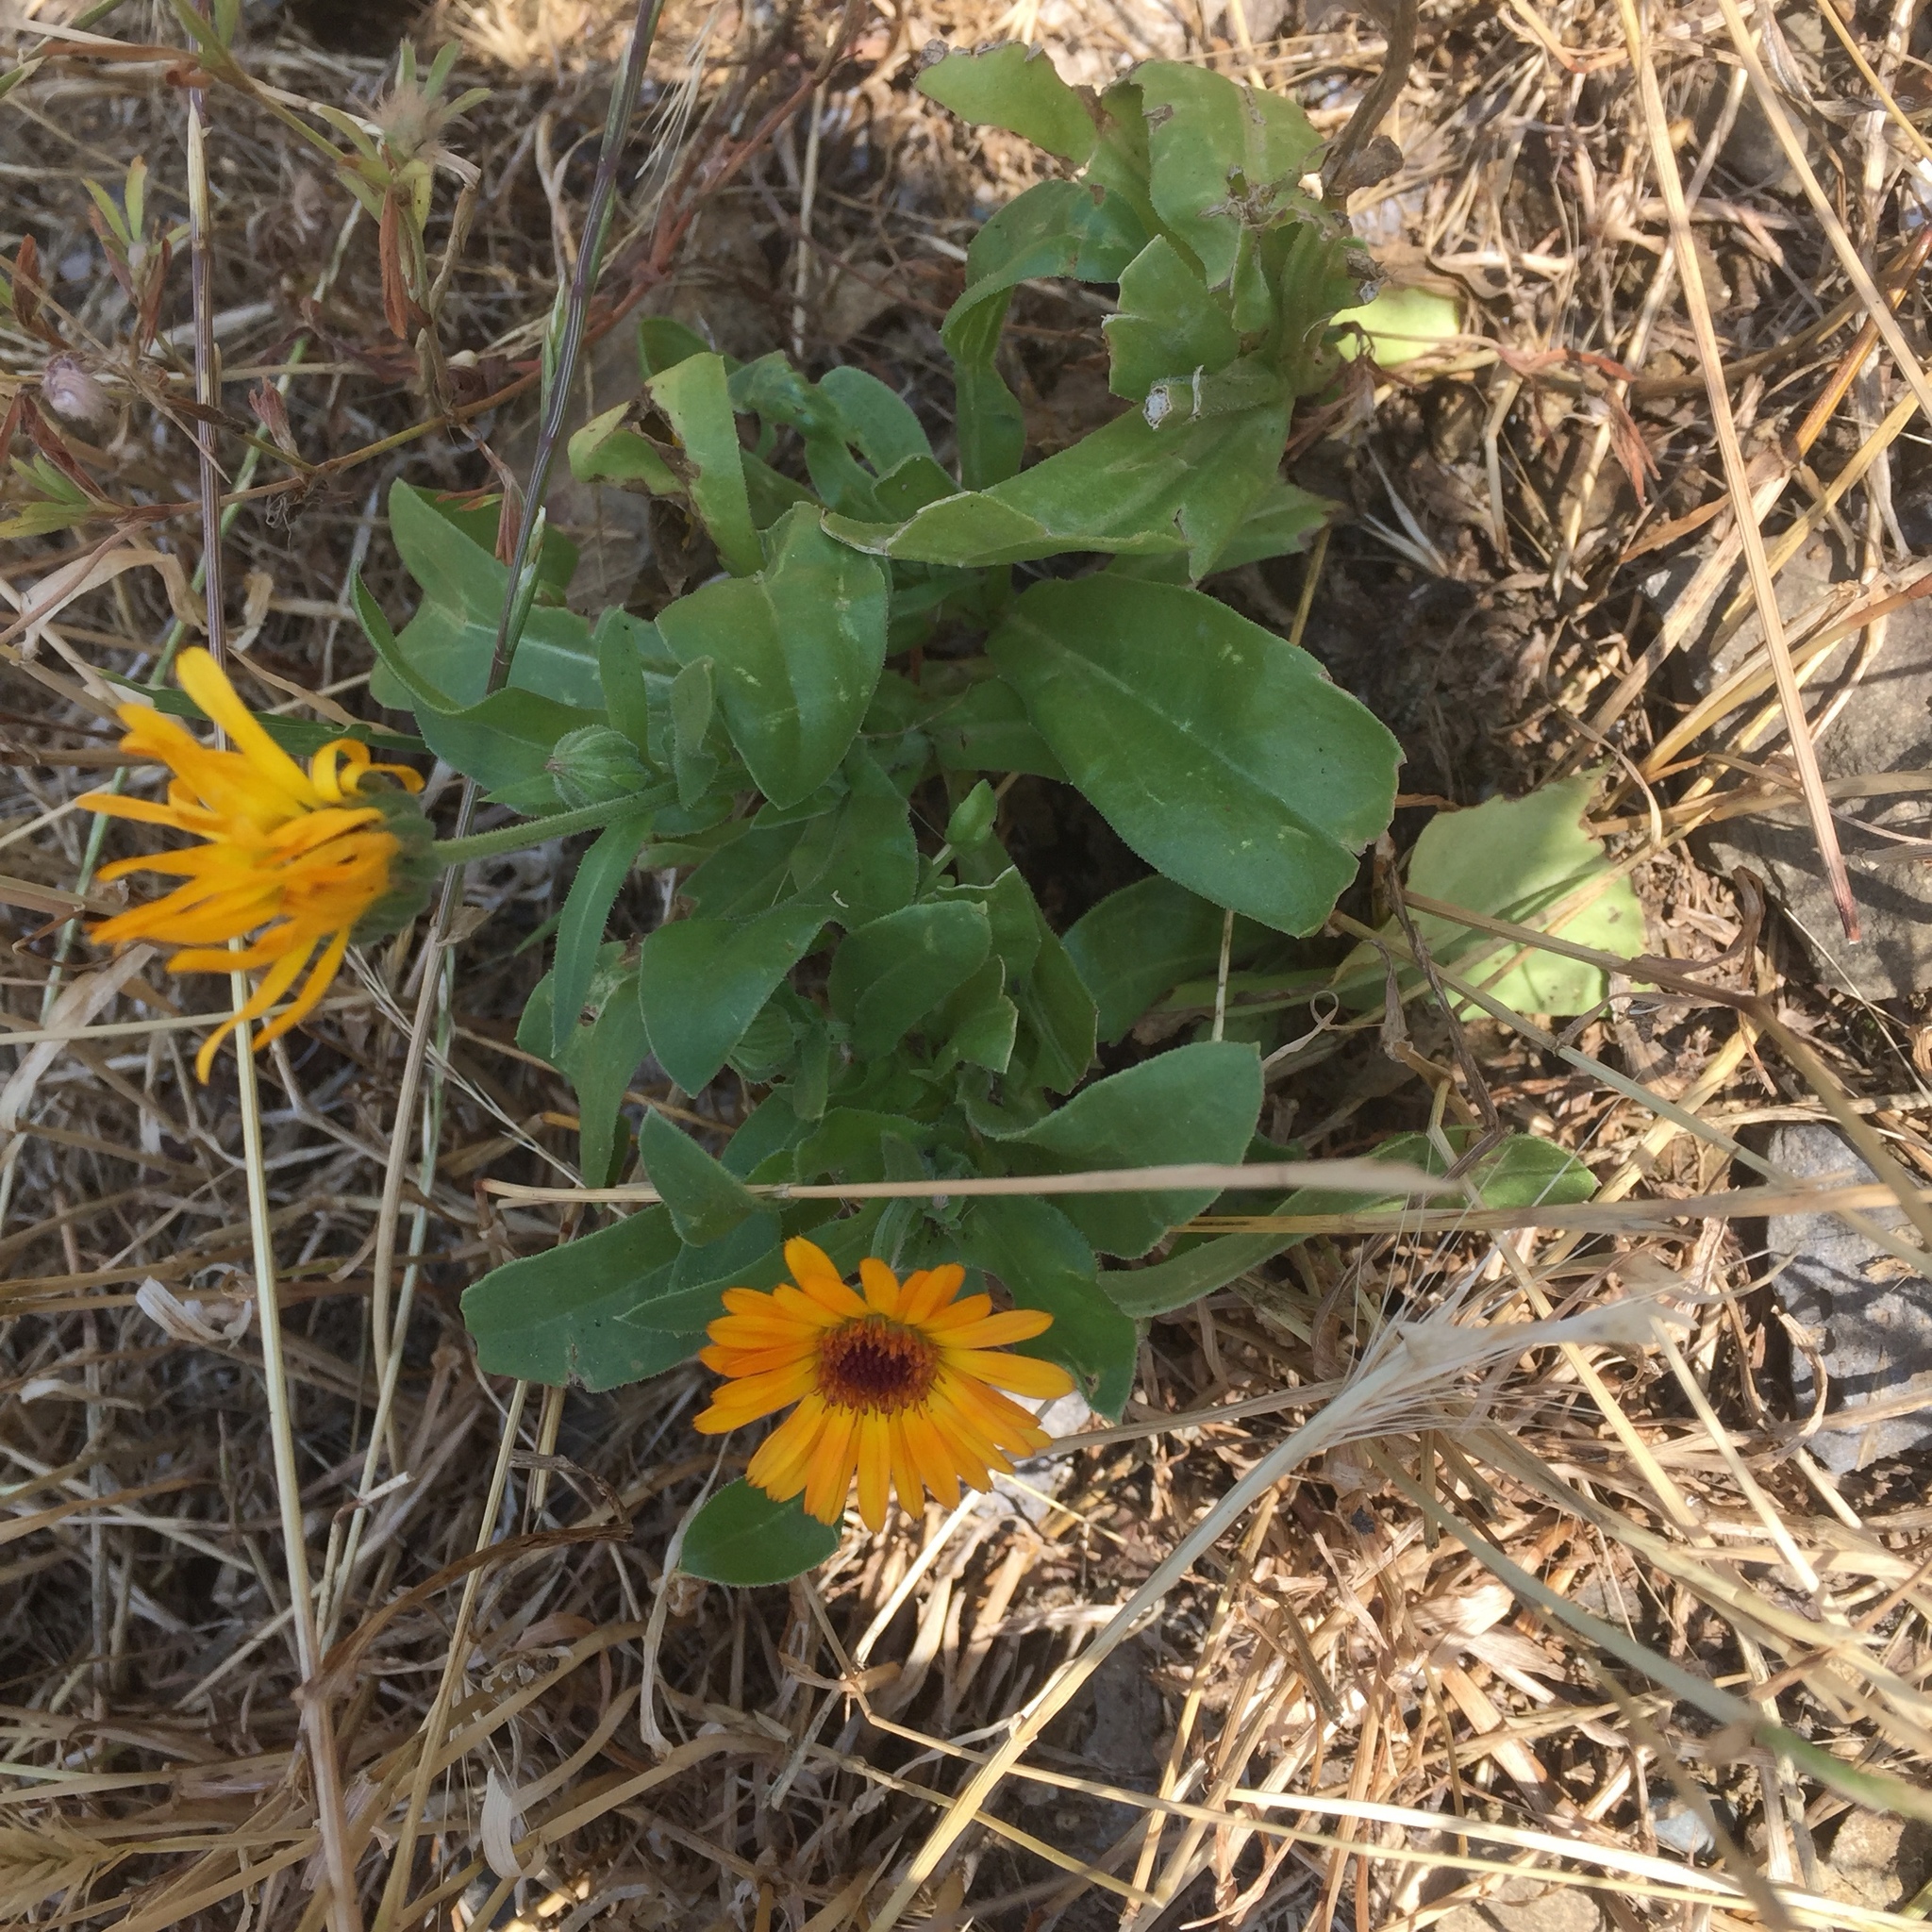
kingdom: Plantae
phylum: Tracheophyta
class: Magnoliopsida
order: Asterales
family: Asteraceae
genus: Calendula
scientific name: Calendula officinalis
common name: Pot marigold
